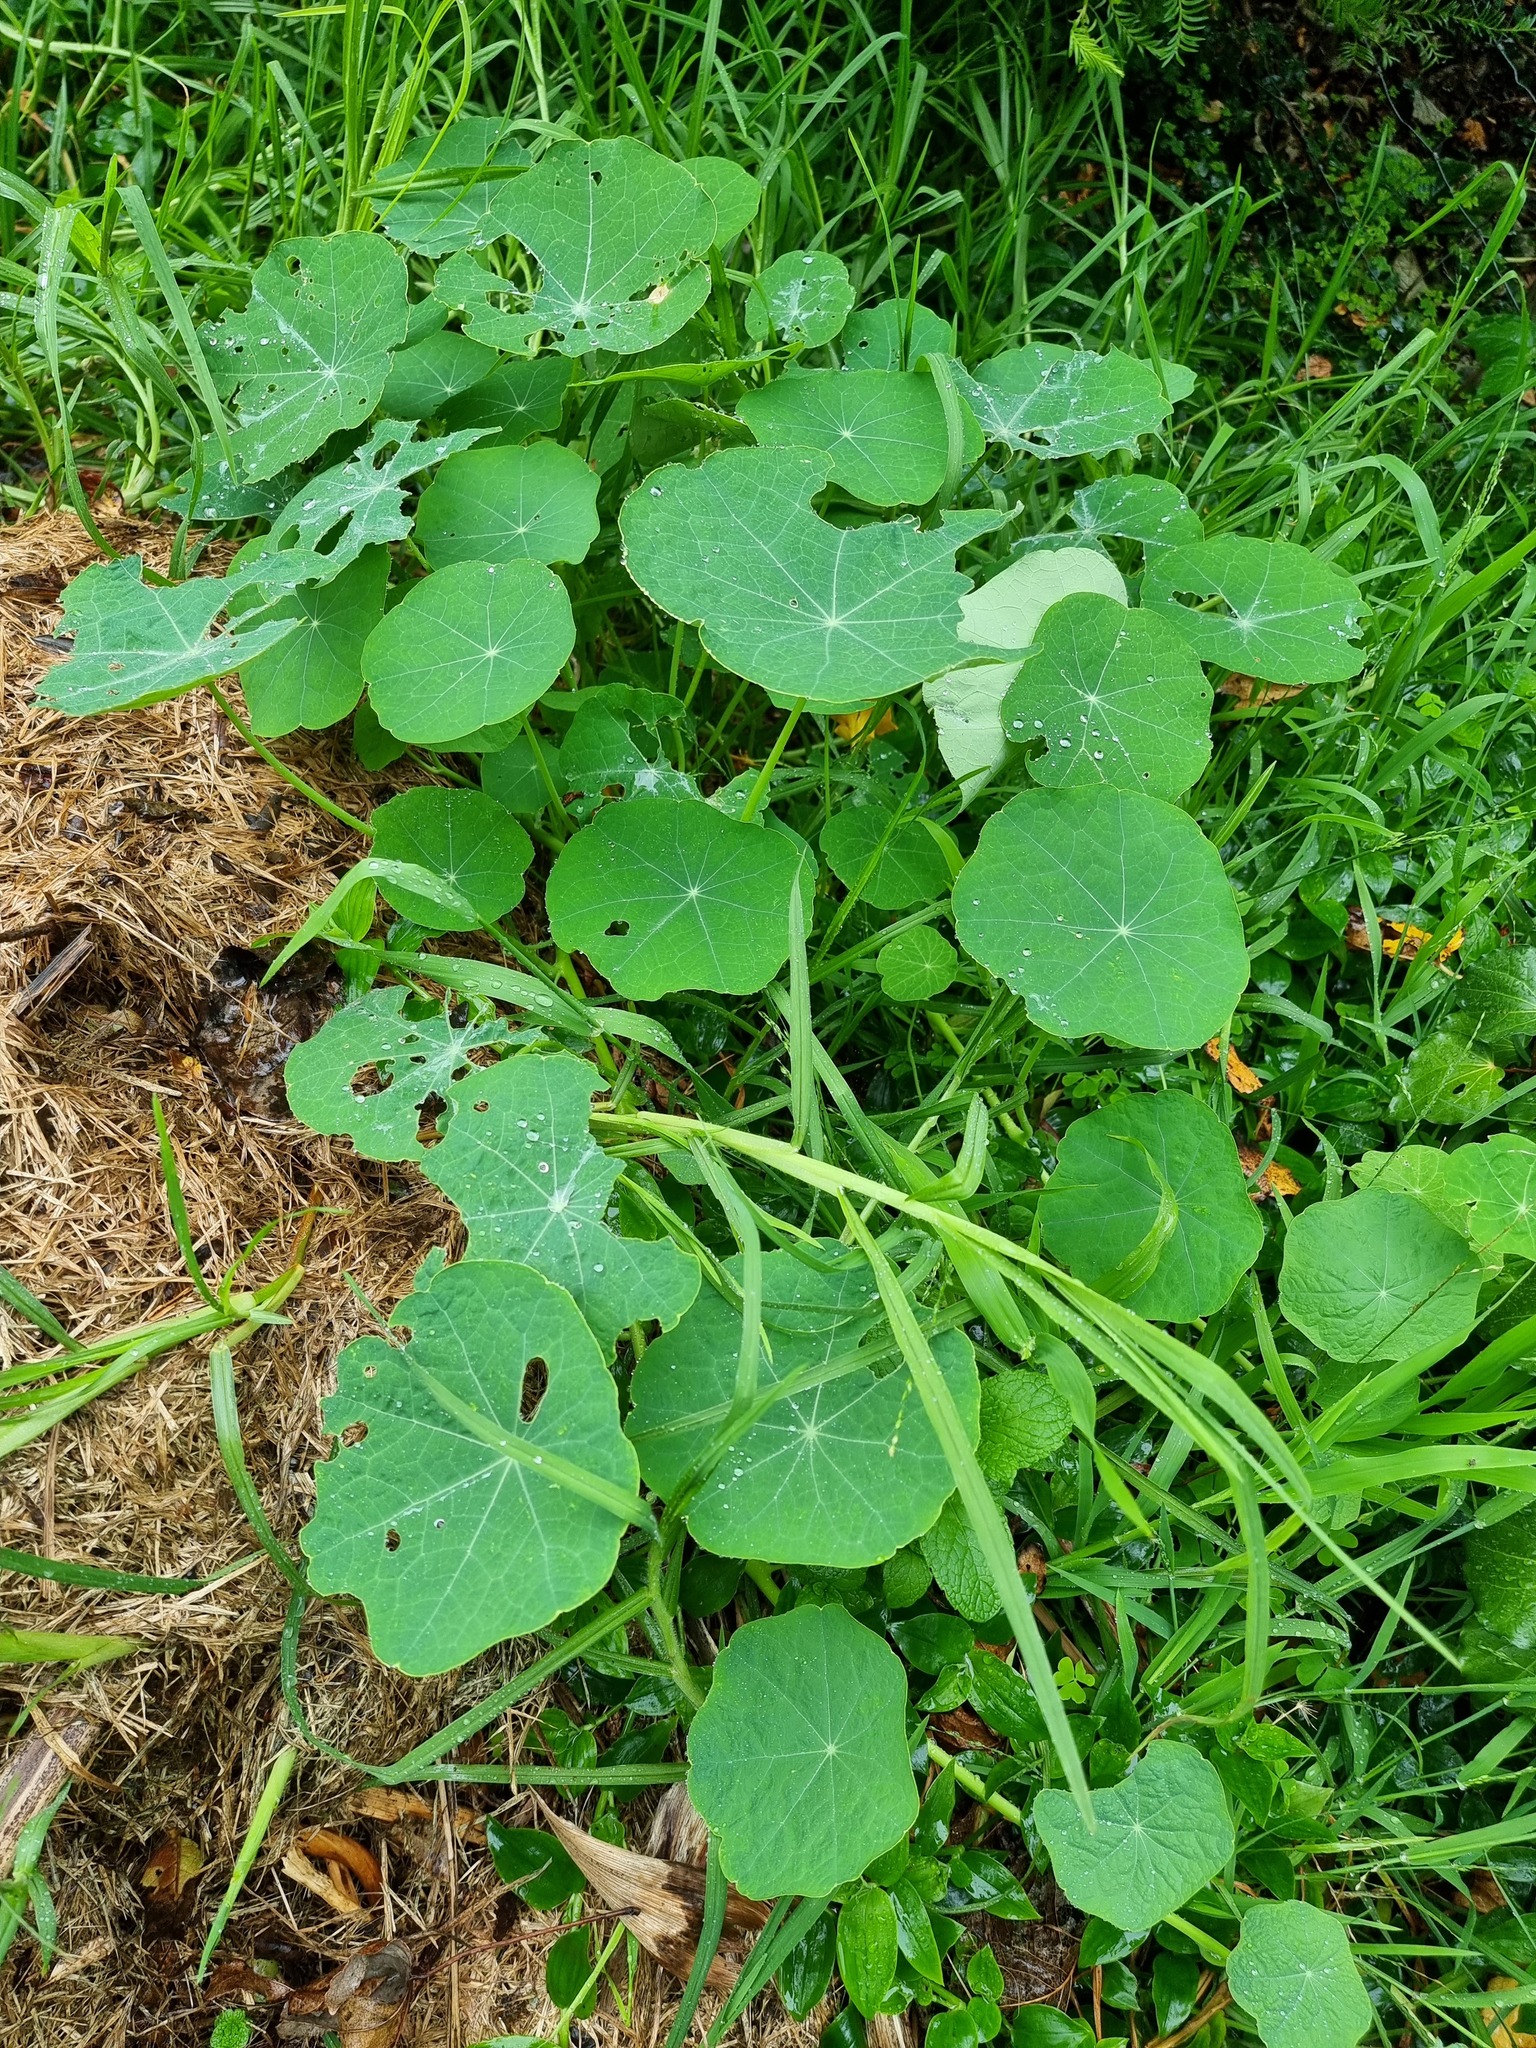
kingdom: Plantae
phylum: Tracheophyta
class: Magnoliopsida
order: Brassicales
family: Tropaeolaceae
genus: Tropaeolum
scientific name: Tropaeolum majus
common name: Nasturtium
